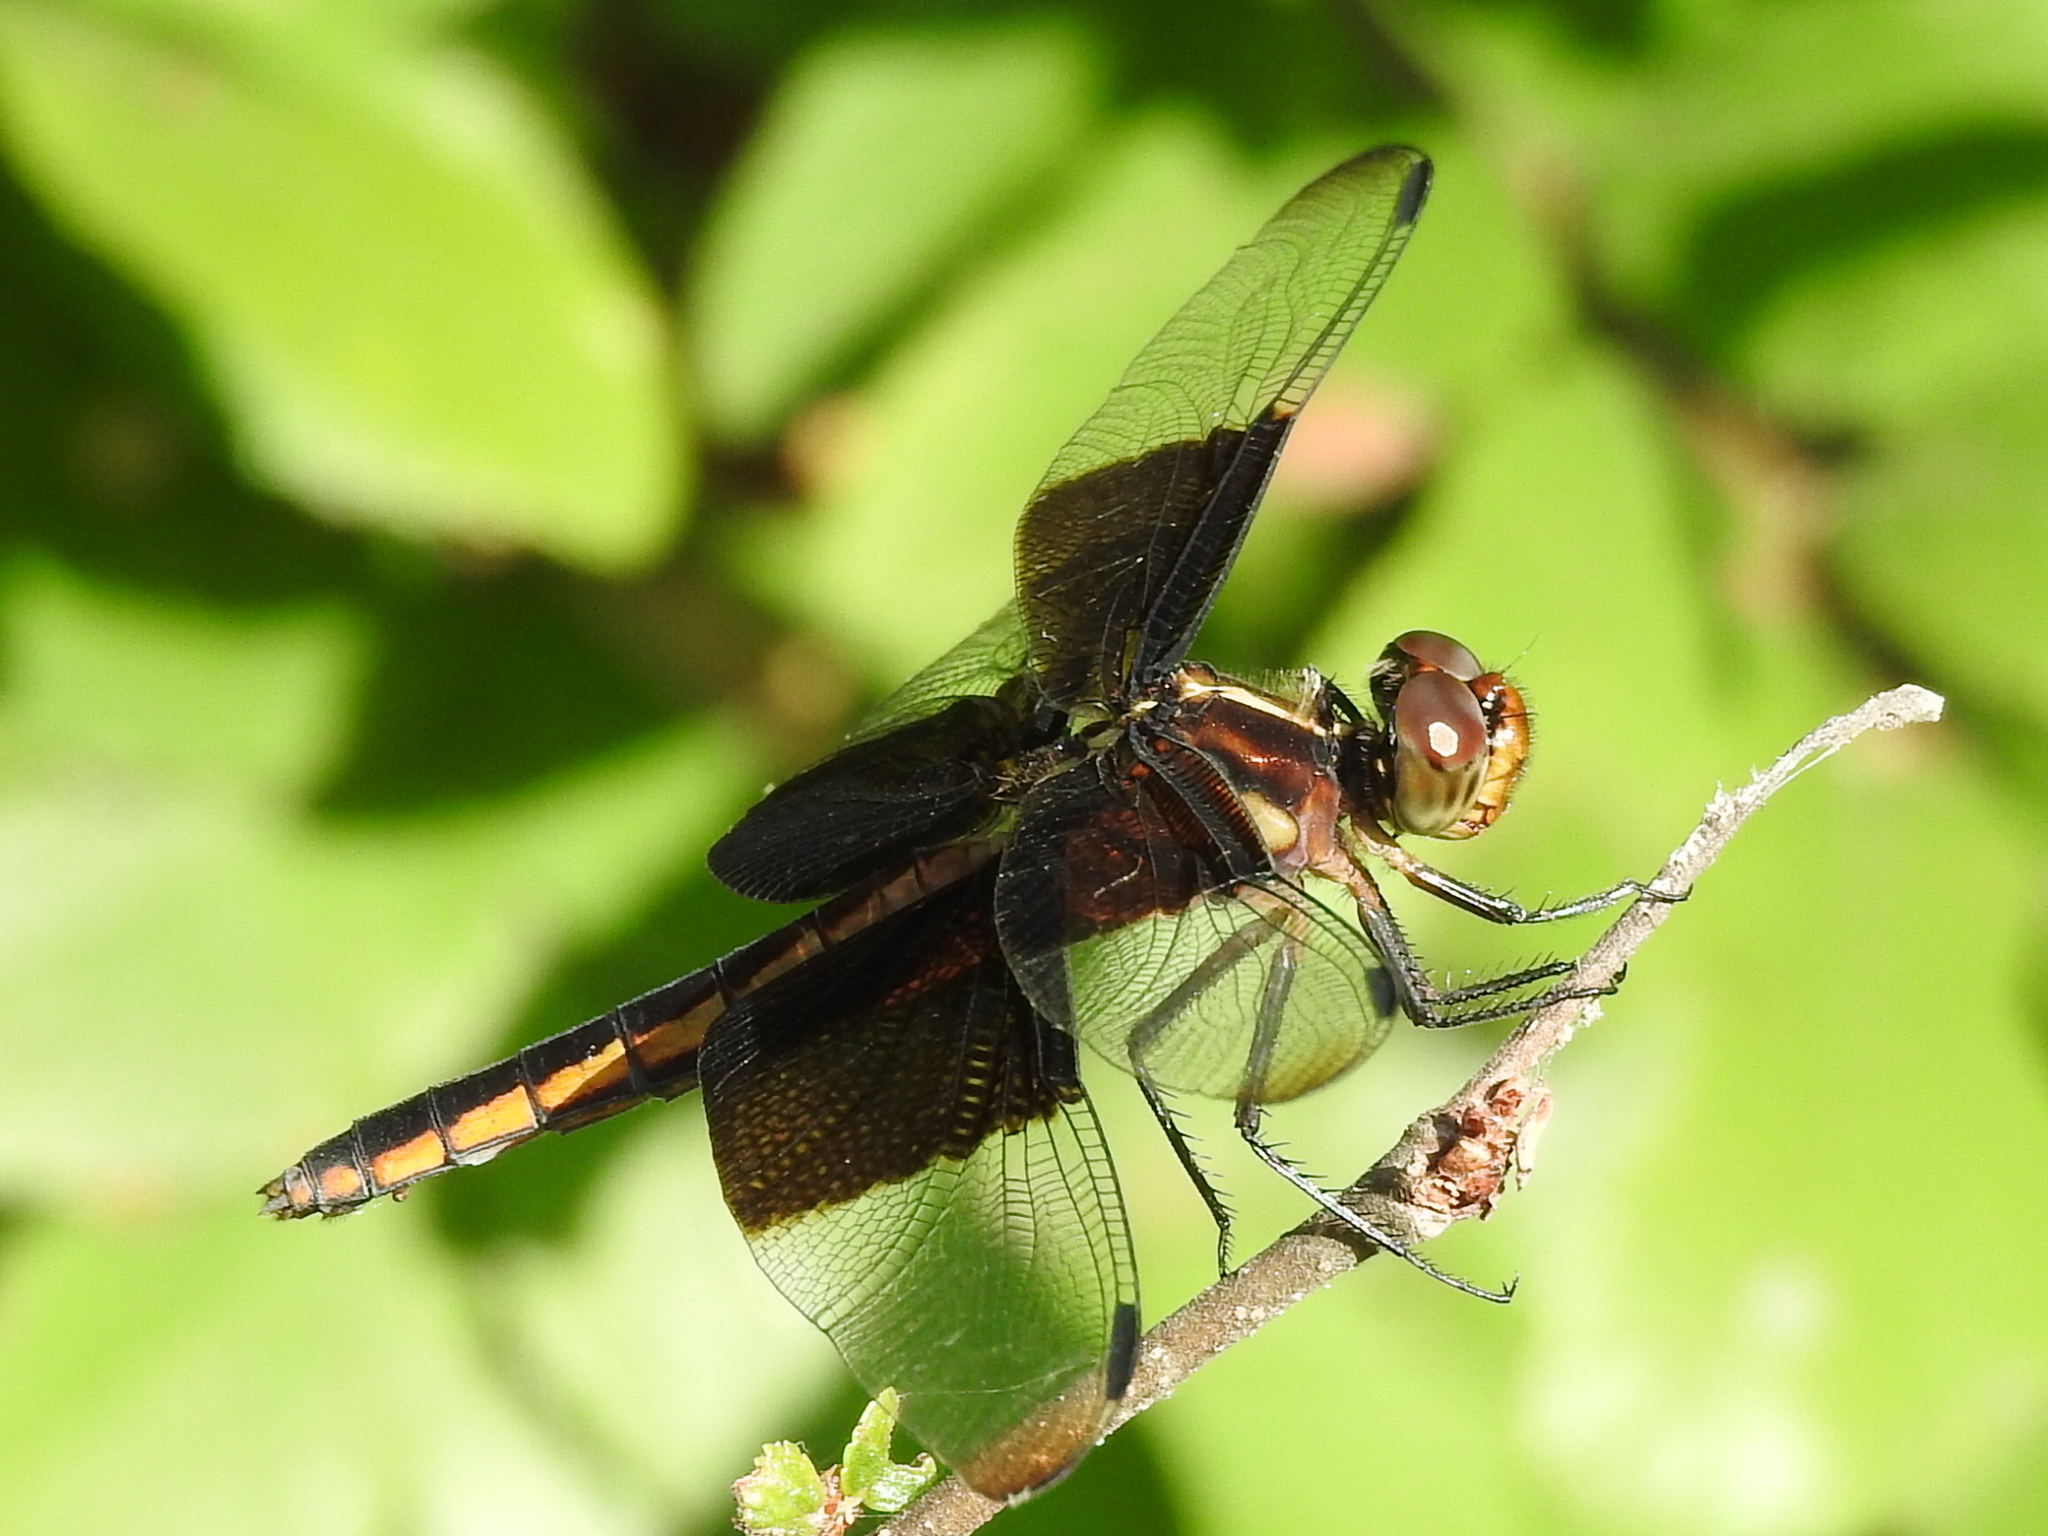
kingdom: Animalia
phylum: Arthropoda
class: Insecta
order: Odonata
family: Libellulidae
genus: Libellula
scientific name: Libellula luctuosa
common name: Widow skimmer
